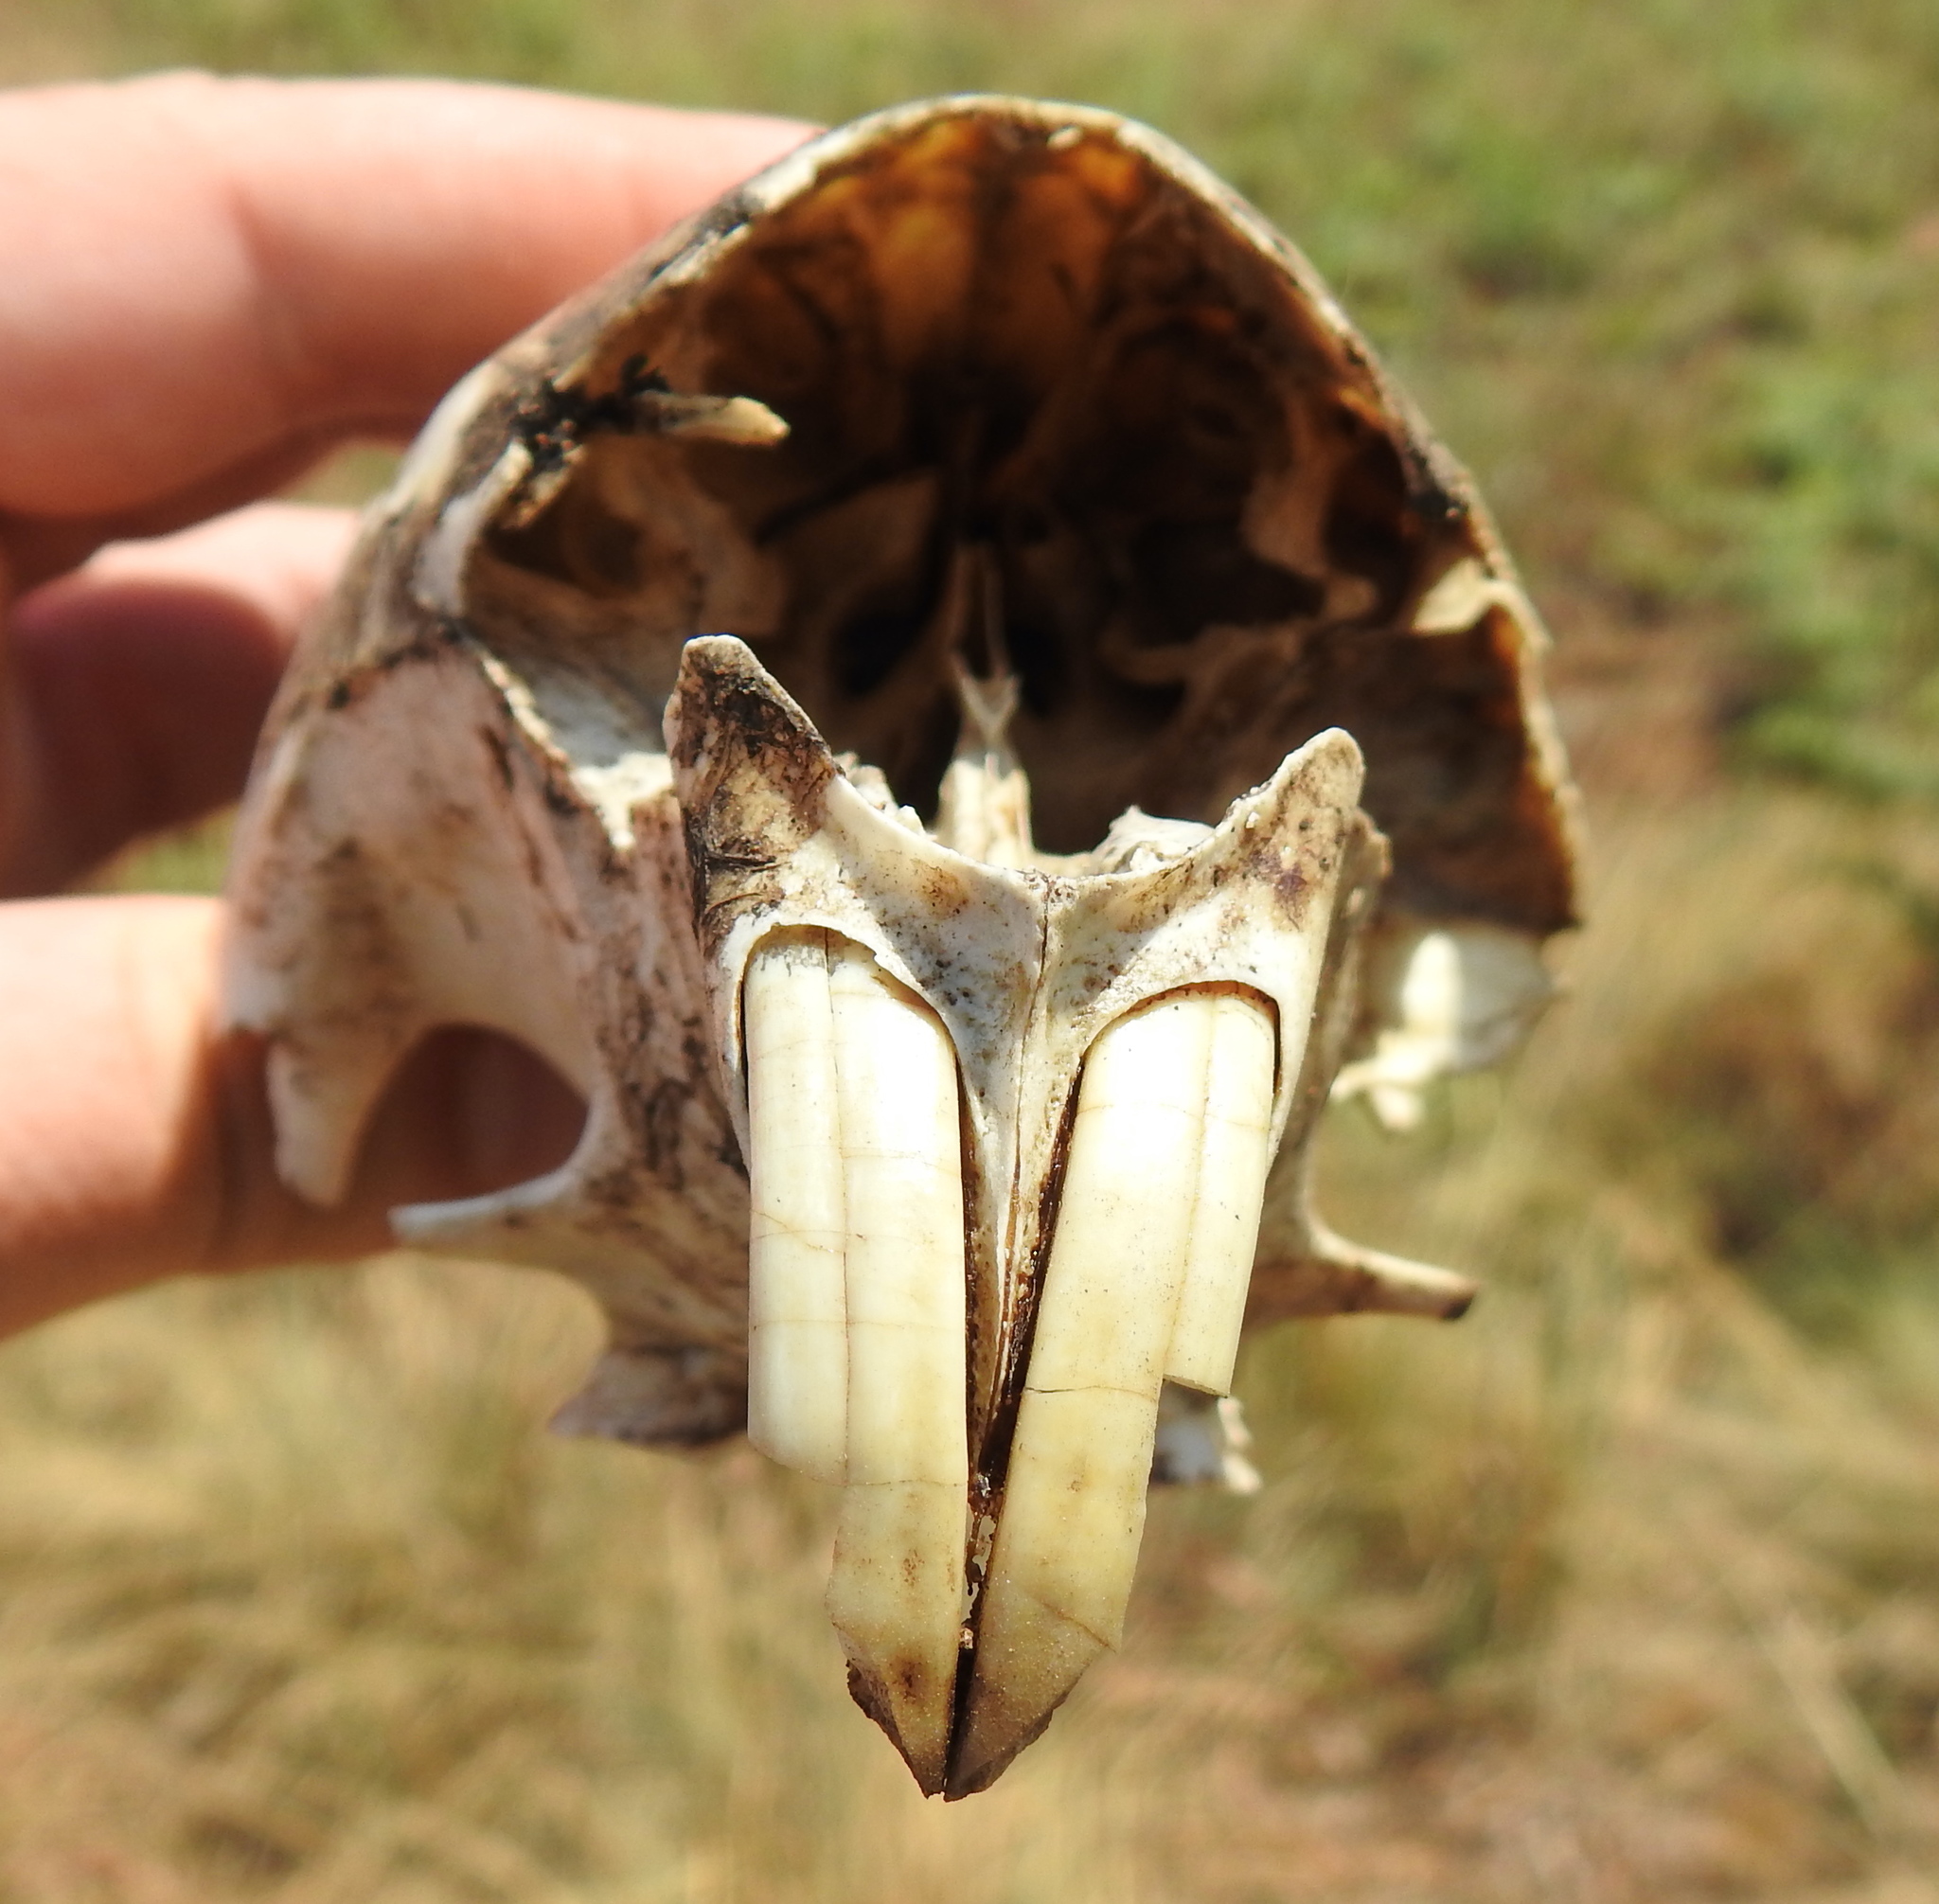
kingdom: Animalia
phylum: Chordata
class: Mammalia
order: Rodentia
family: Hystricidae
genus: Hystrix
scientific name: Hystrix africaeaustralis
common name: Cape porcupine
